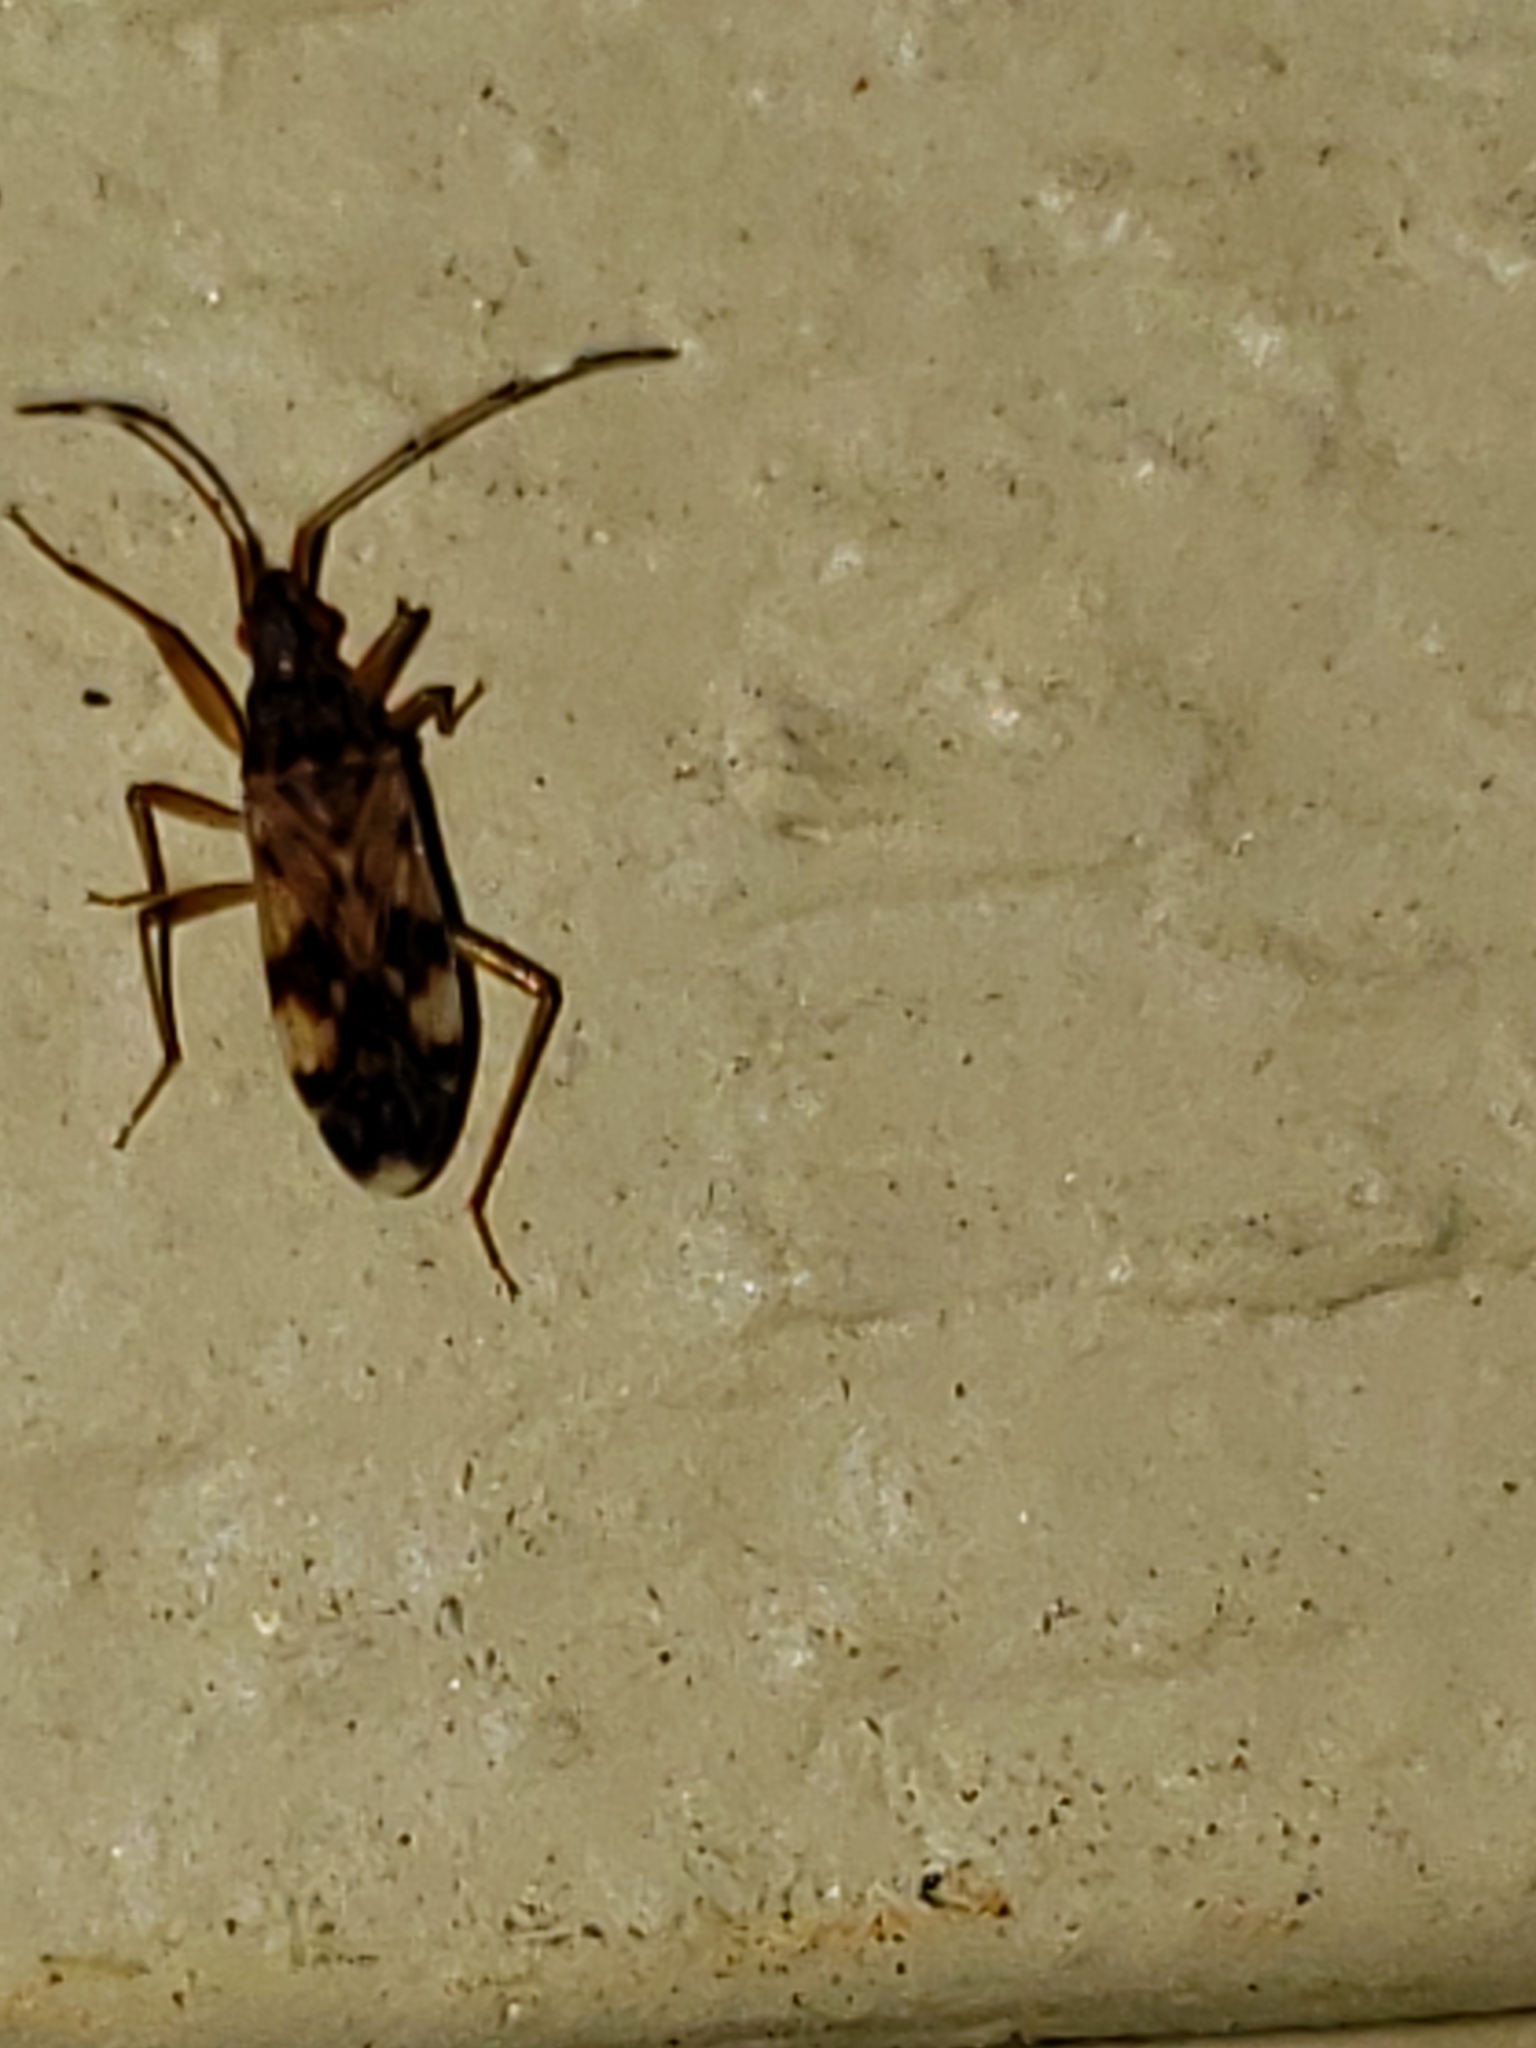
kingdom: Animalia
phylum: Arthropoda
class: Insecta
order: Hemiptera
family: Rhyparochromidae
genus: Ozophora
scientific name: Ozophora picturata
